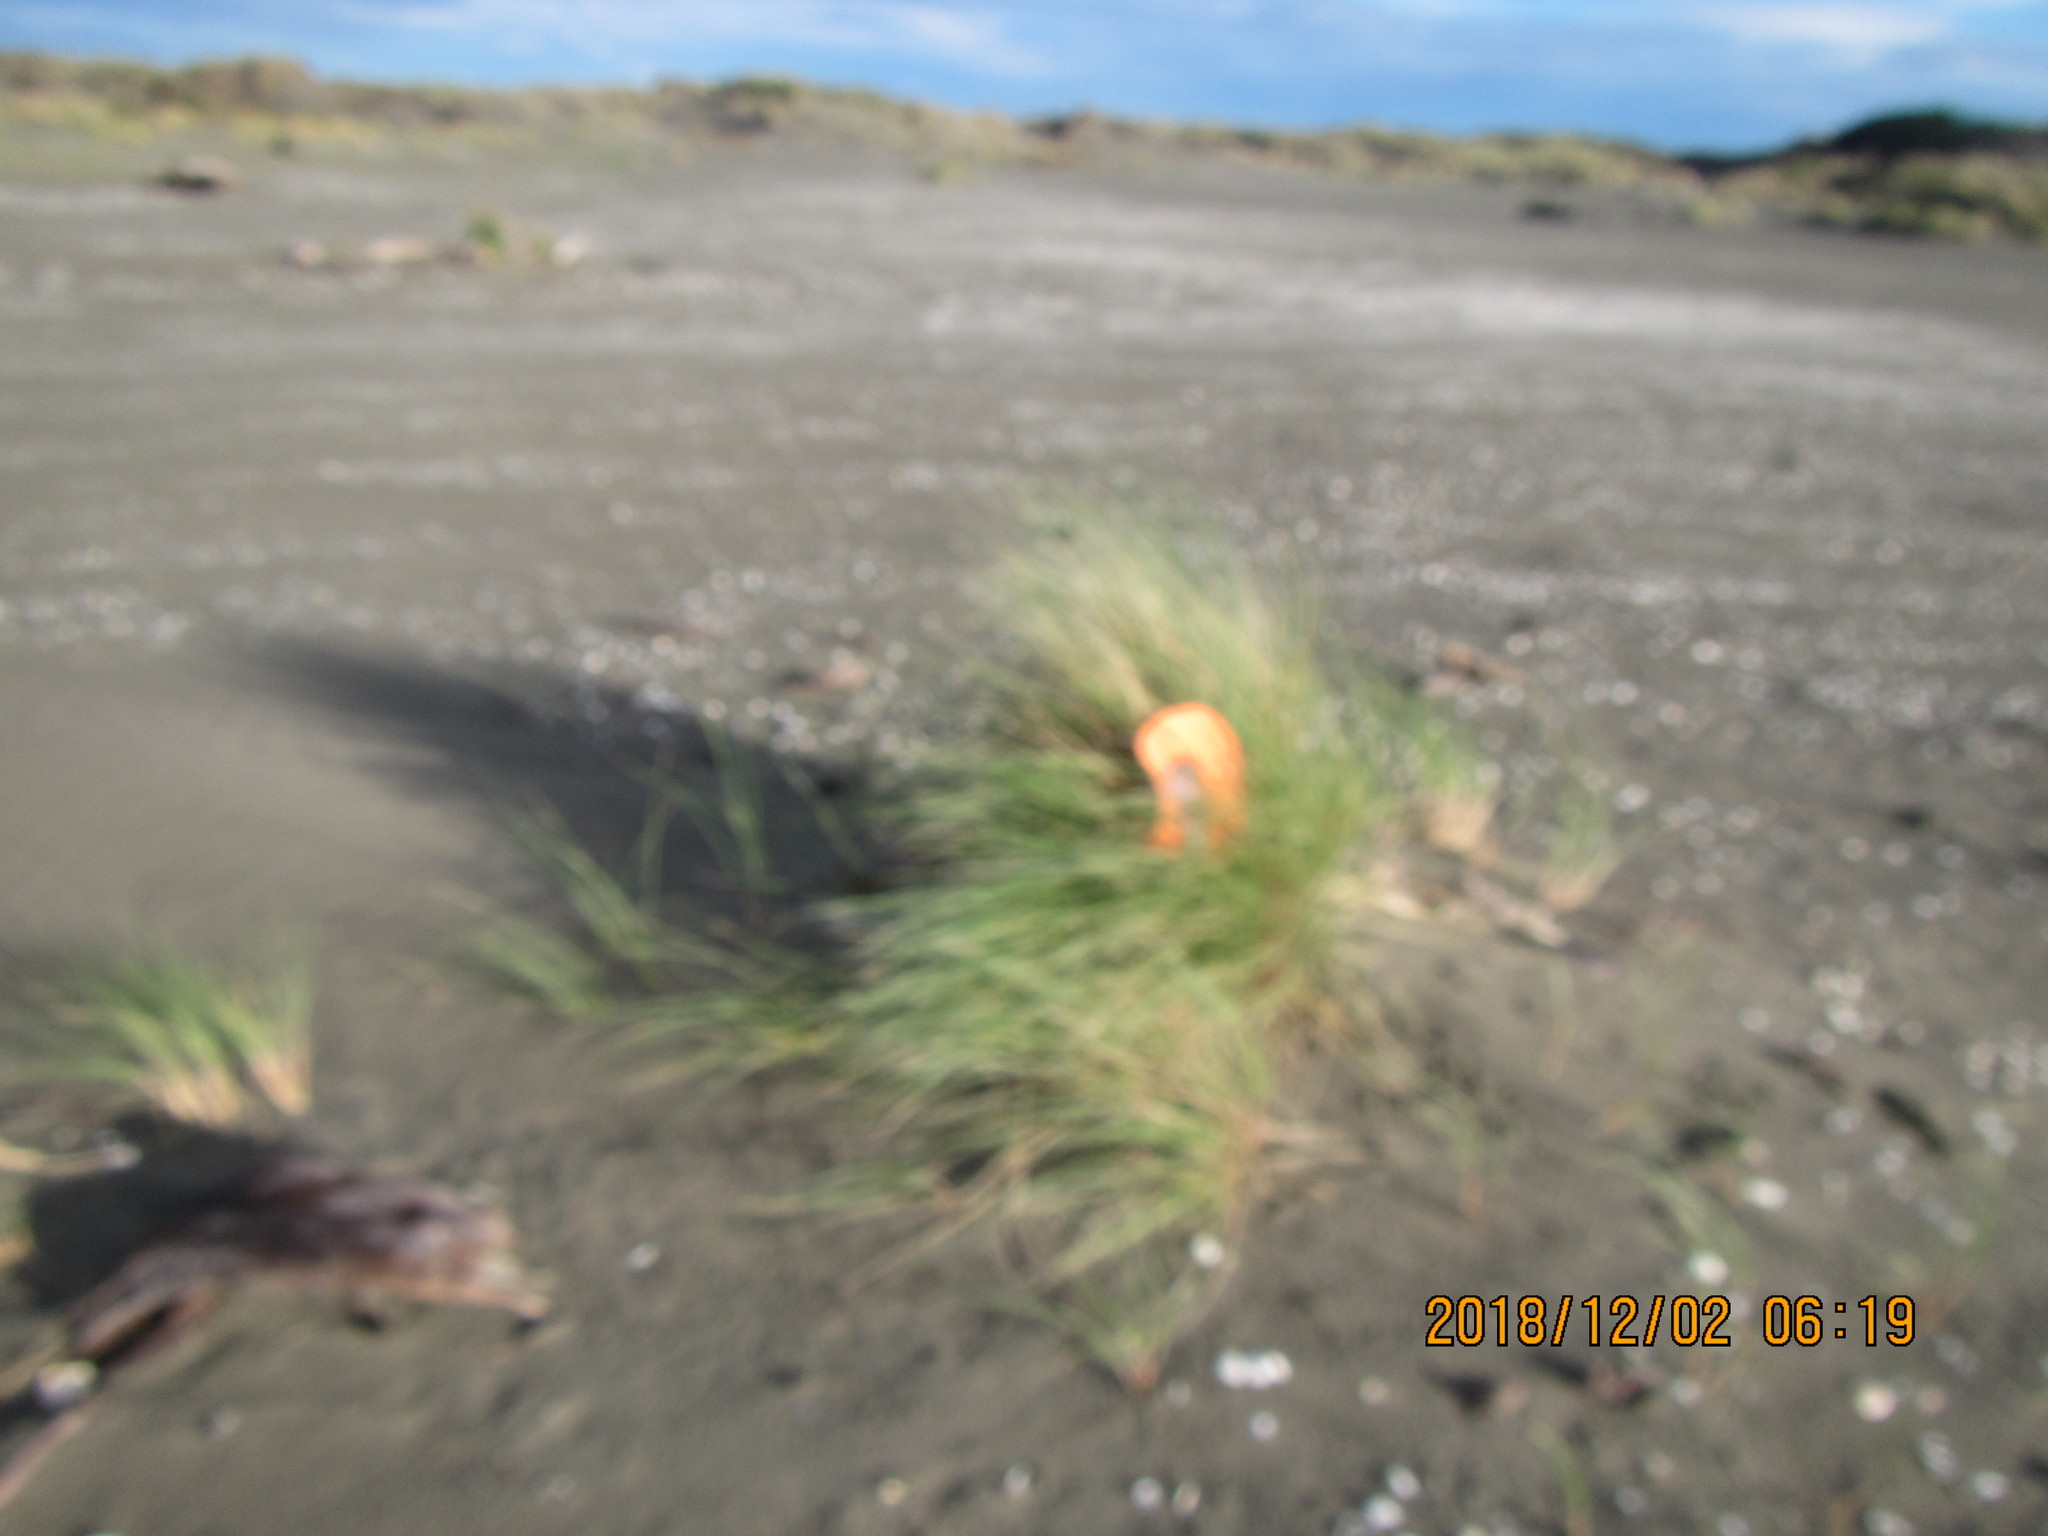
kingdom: Animalia
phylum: Arthropoda
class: Insecta
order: Coleoptera
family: Coccinellidae
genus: Coccinella
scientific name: Coccinella undecimpunctata
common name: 11-spot ladybird
